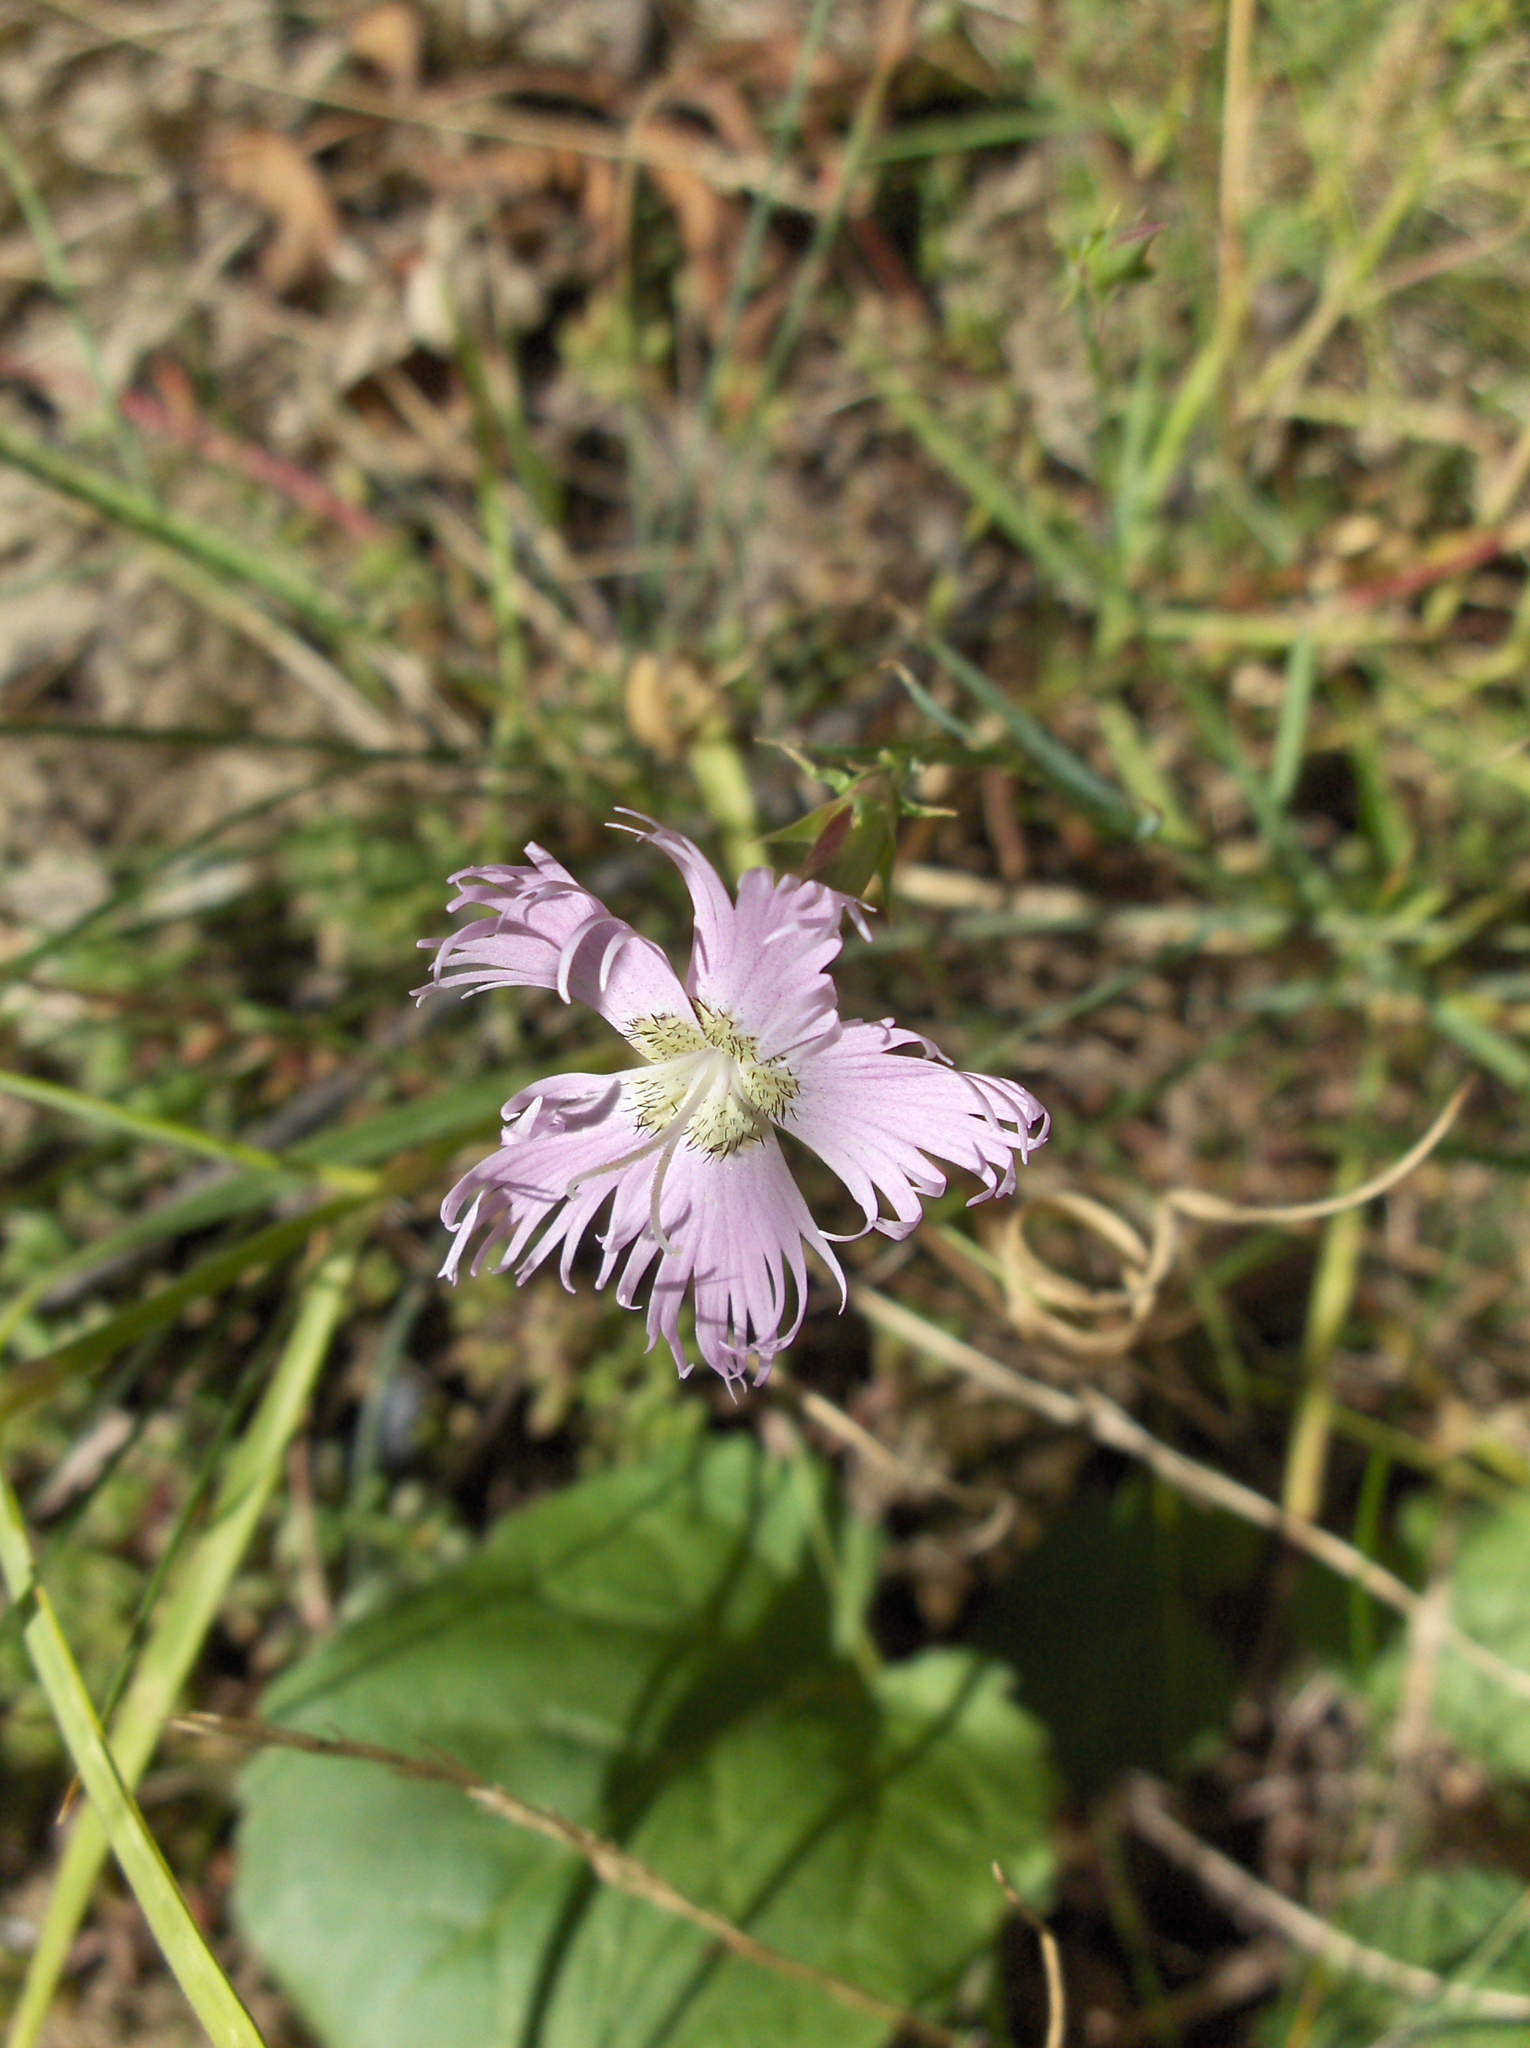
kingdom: Plantae
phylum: Tracheophyta
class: Magnoliopsida
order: Caryophyllales
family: Caryophyllaceae
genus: Dianthus
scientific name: Dianthus hyssopifolius
